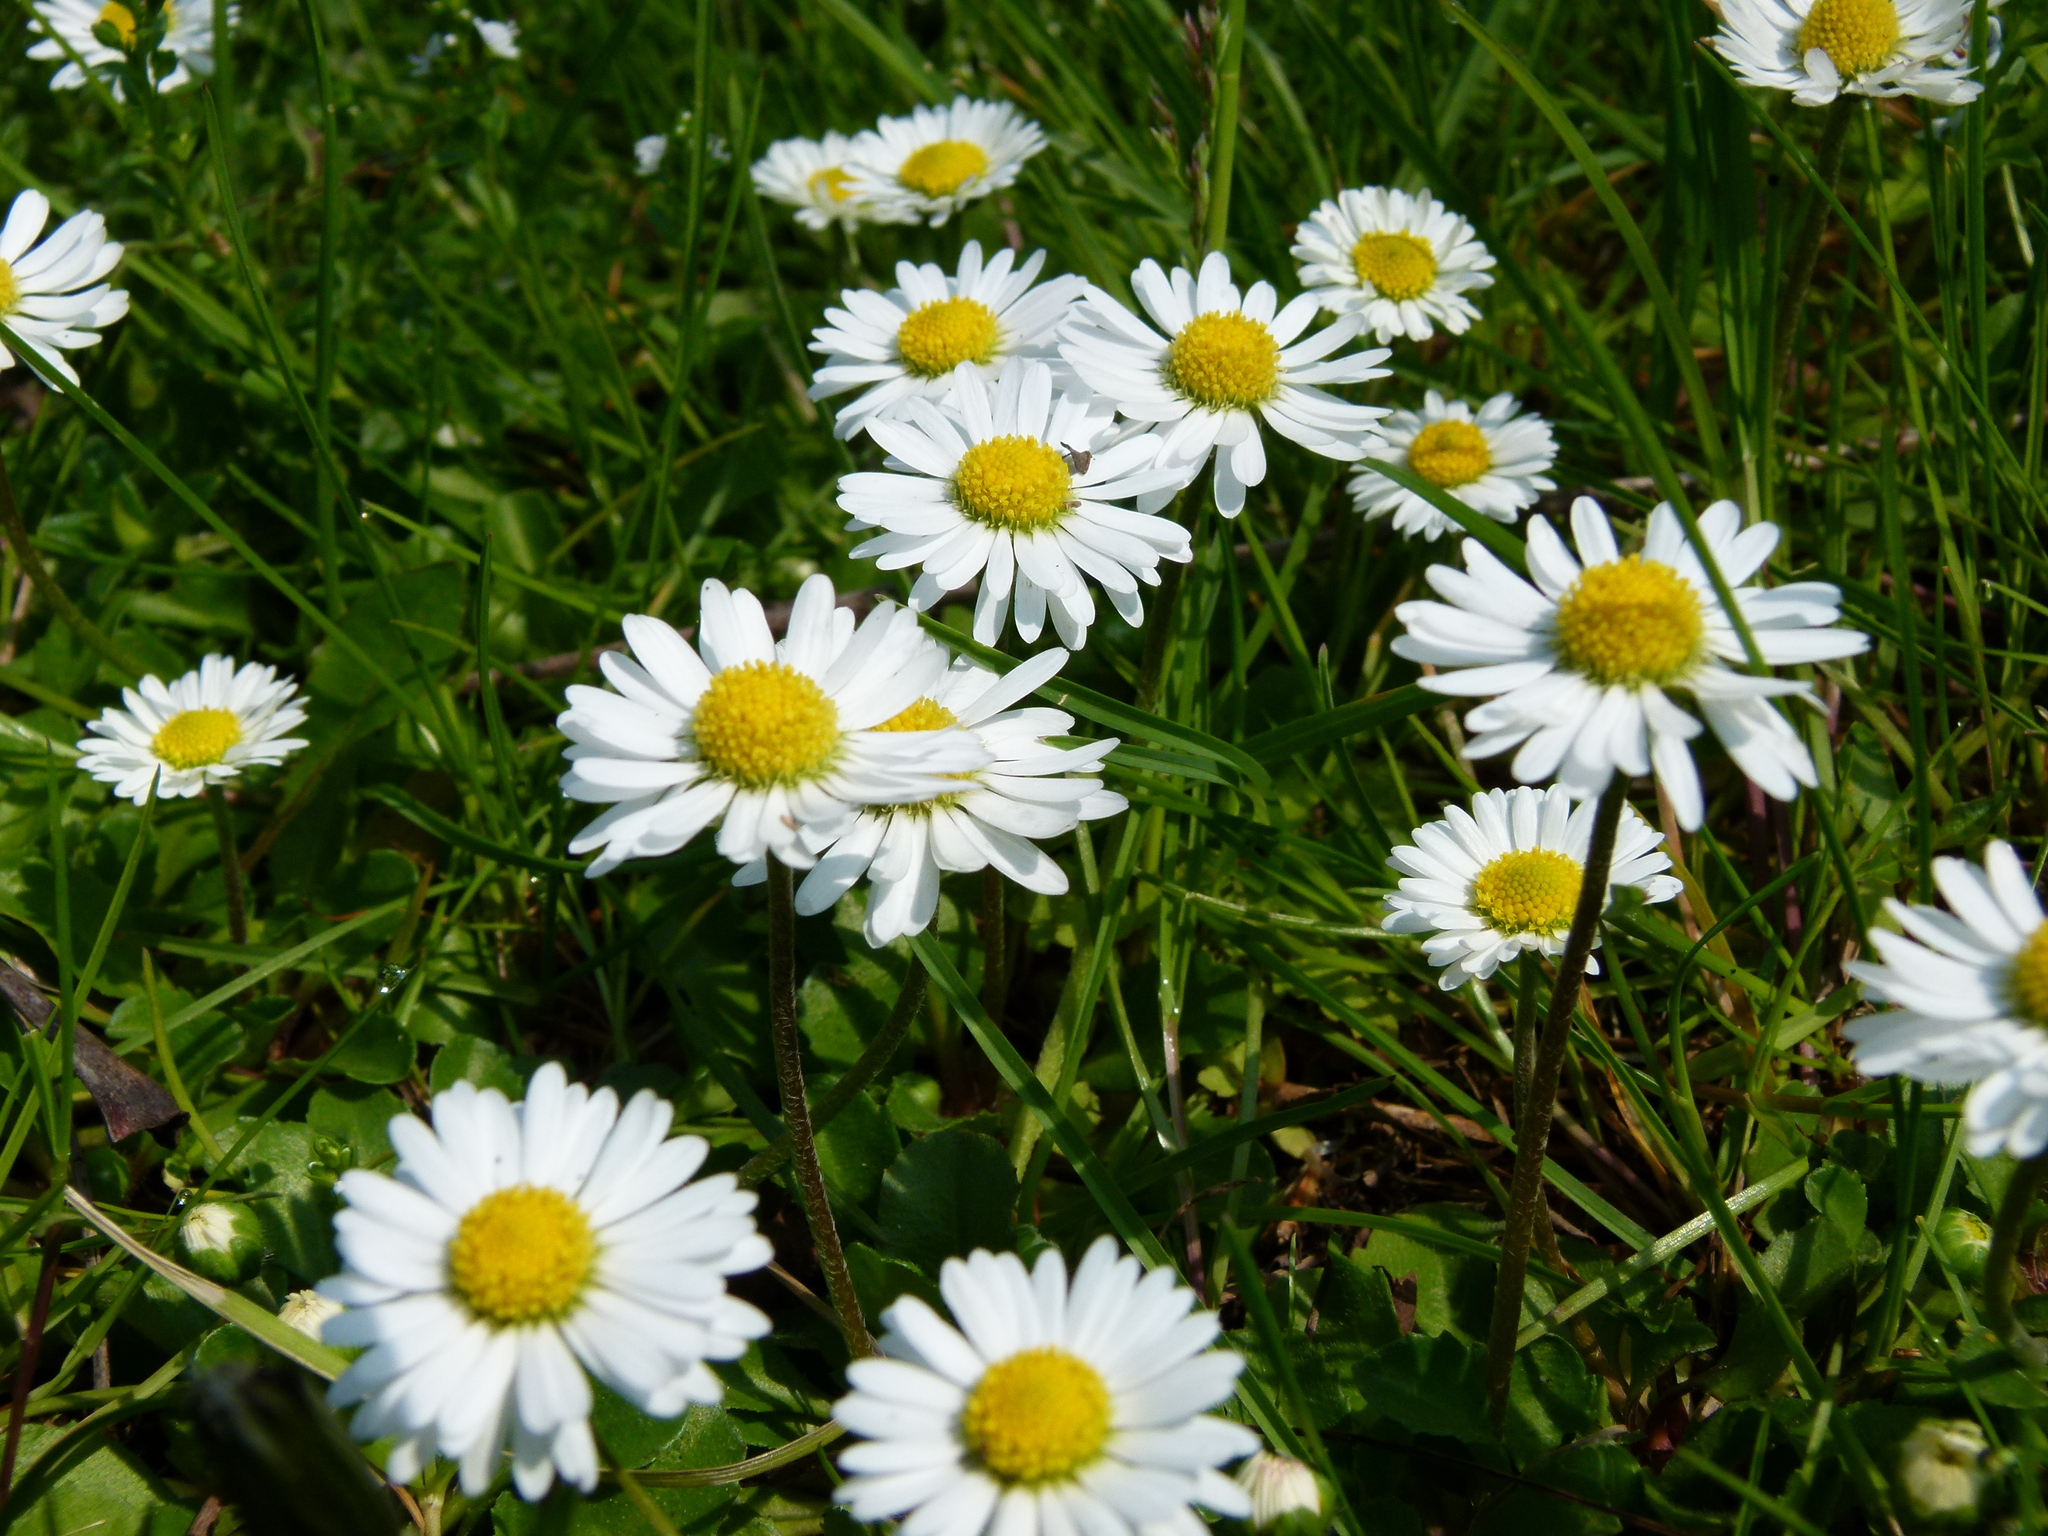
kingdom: Plantae
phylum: Tracheophyta
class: Magnoliopsida
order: Asterales
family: Asteraceae
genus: Bellis
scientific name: Bellis perennis
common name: Lawndaisy
